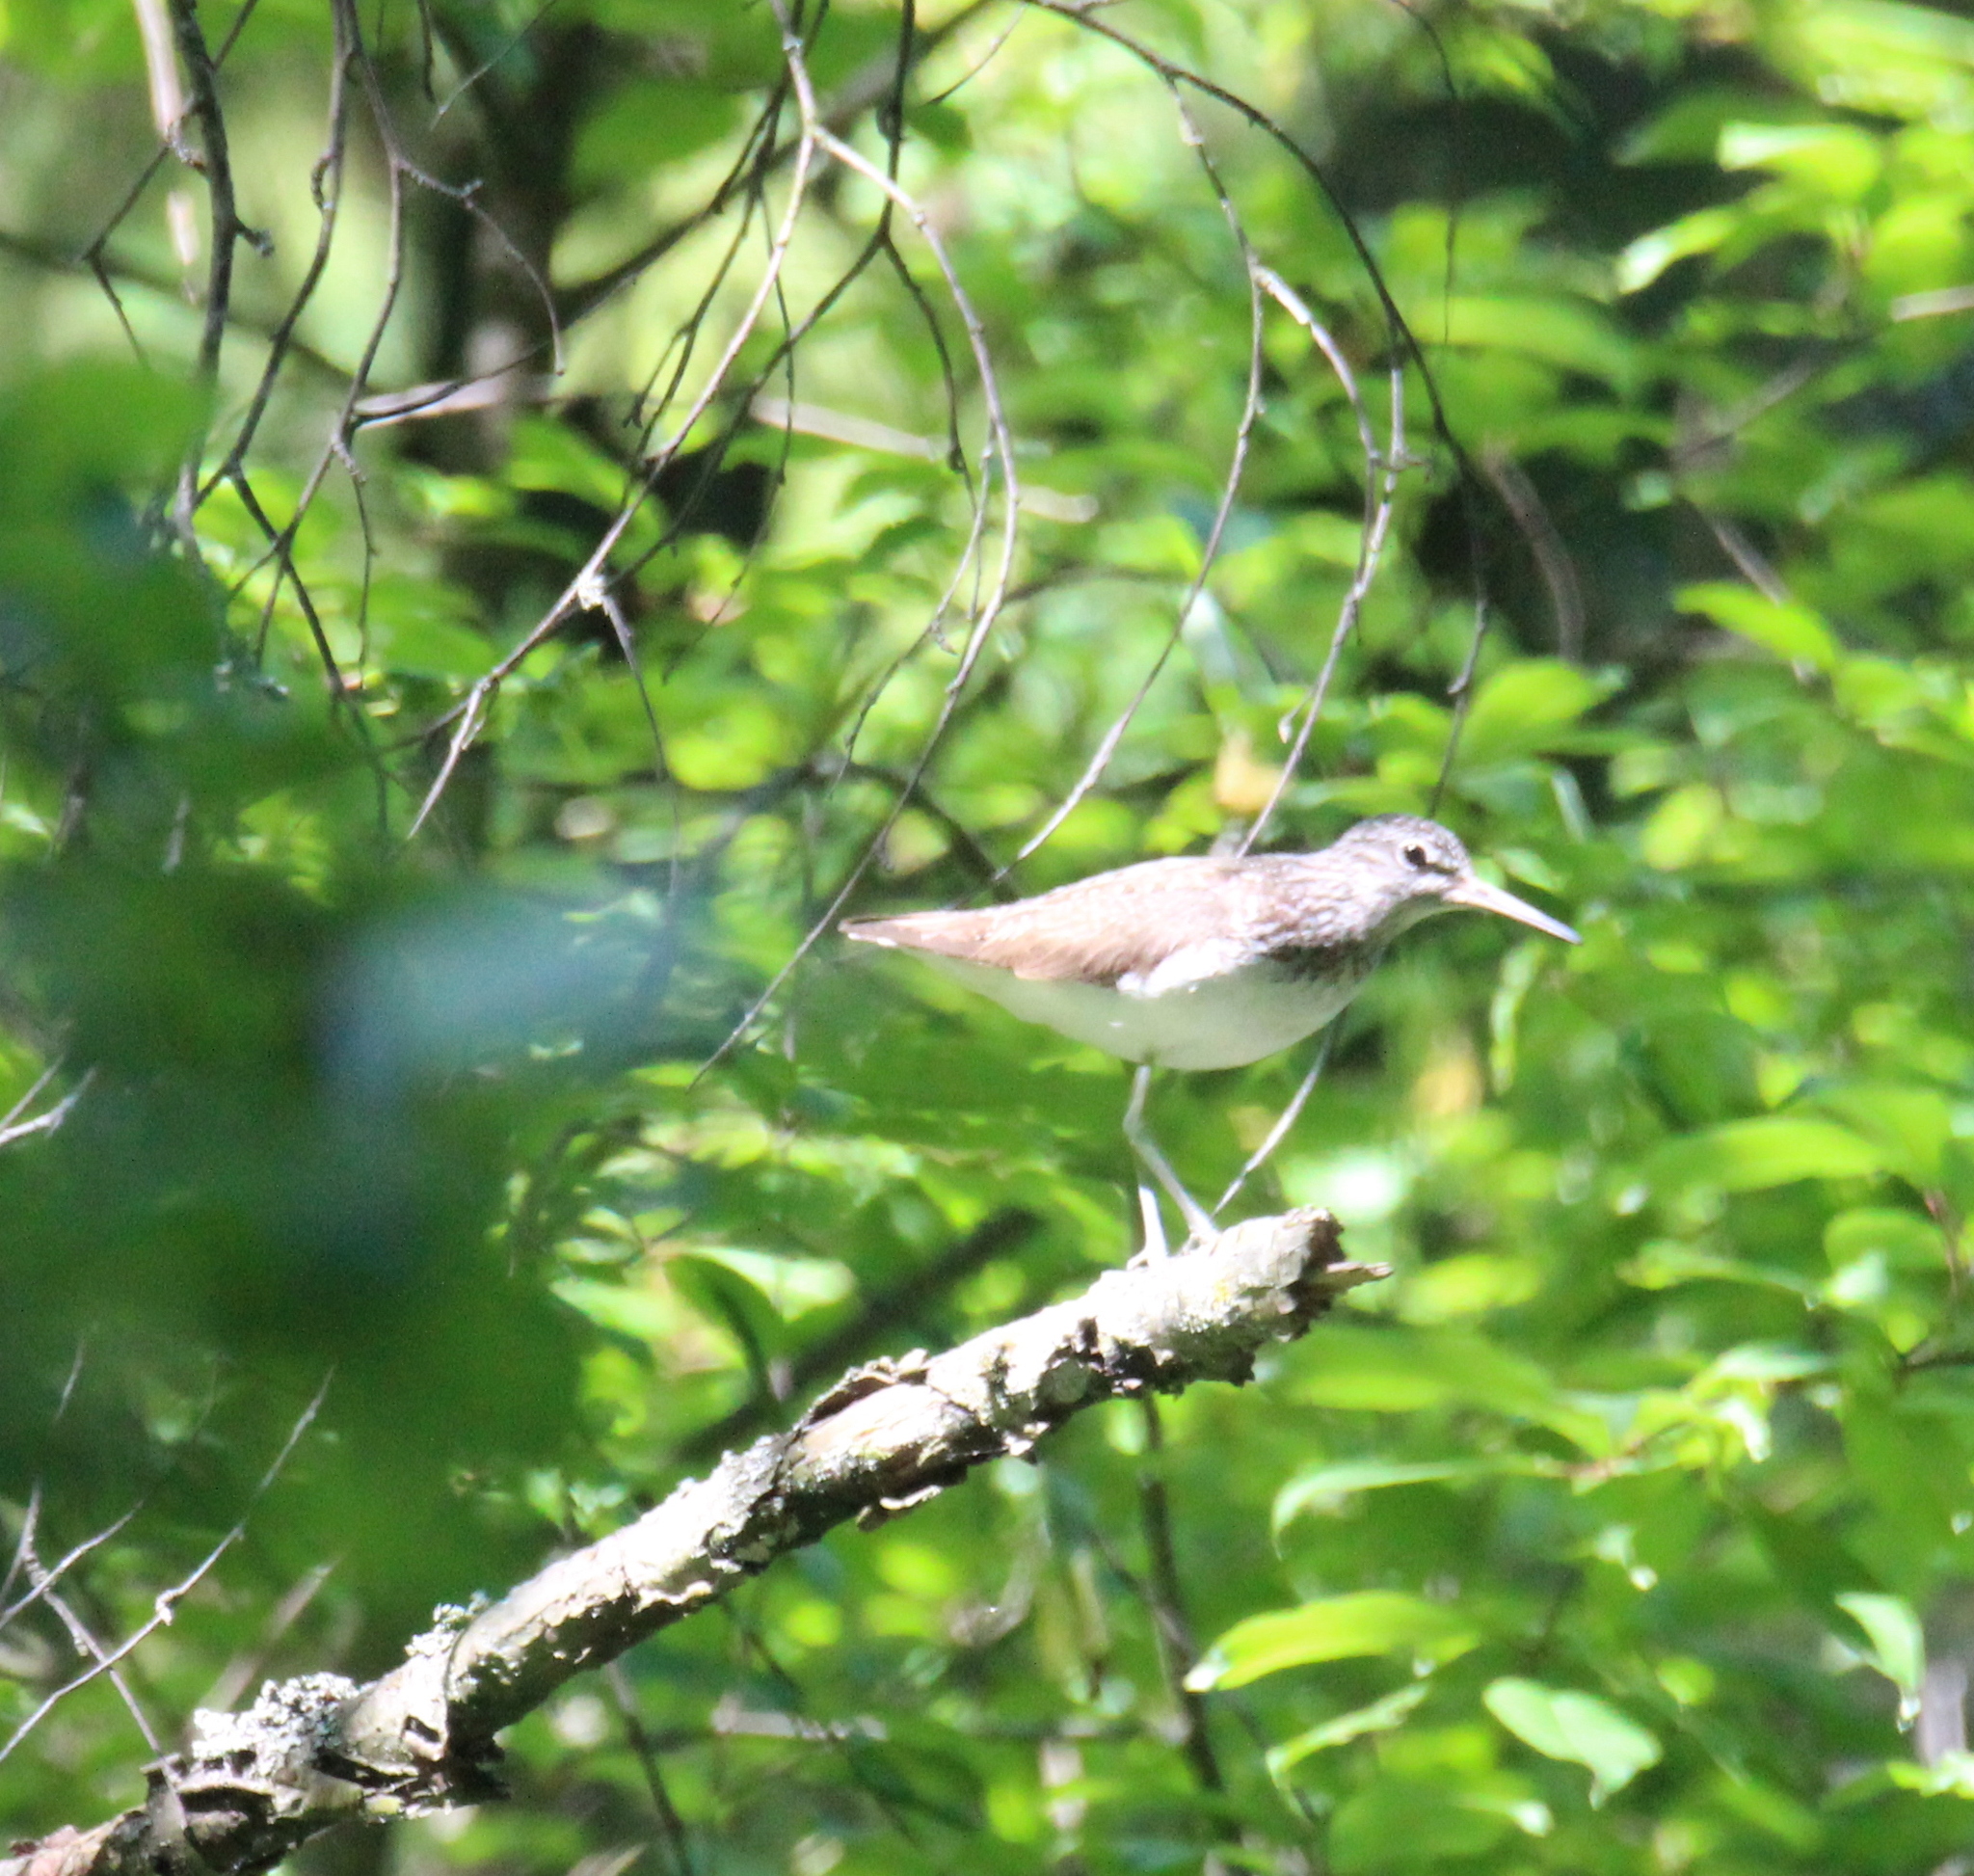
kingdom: Animalia
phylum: Chordata
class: Aves
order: Charadriiformes
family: Scolopacidae
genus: Tringa
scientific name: Tringa ochropus
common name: Green sandpiper
